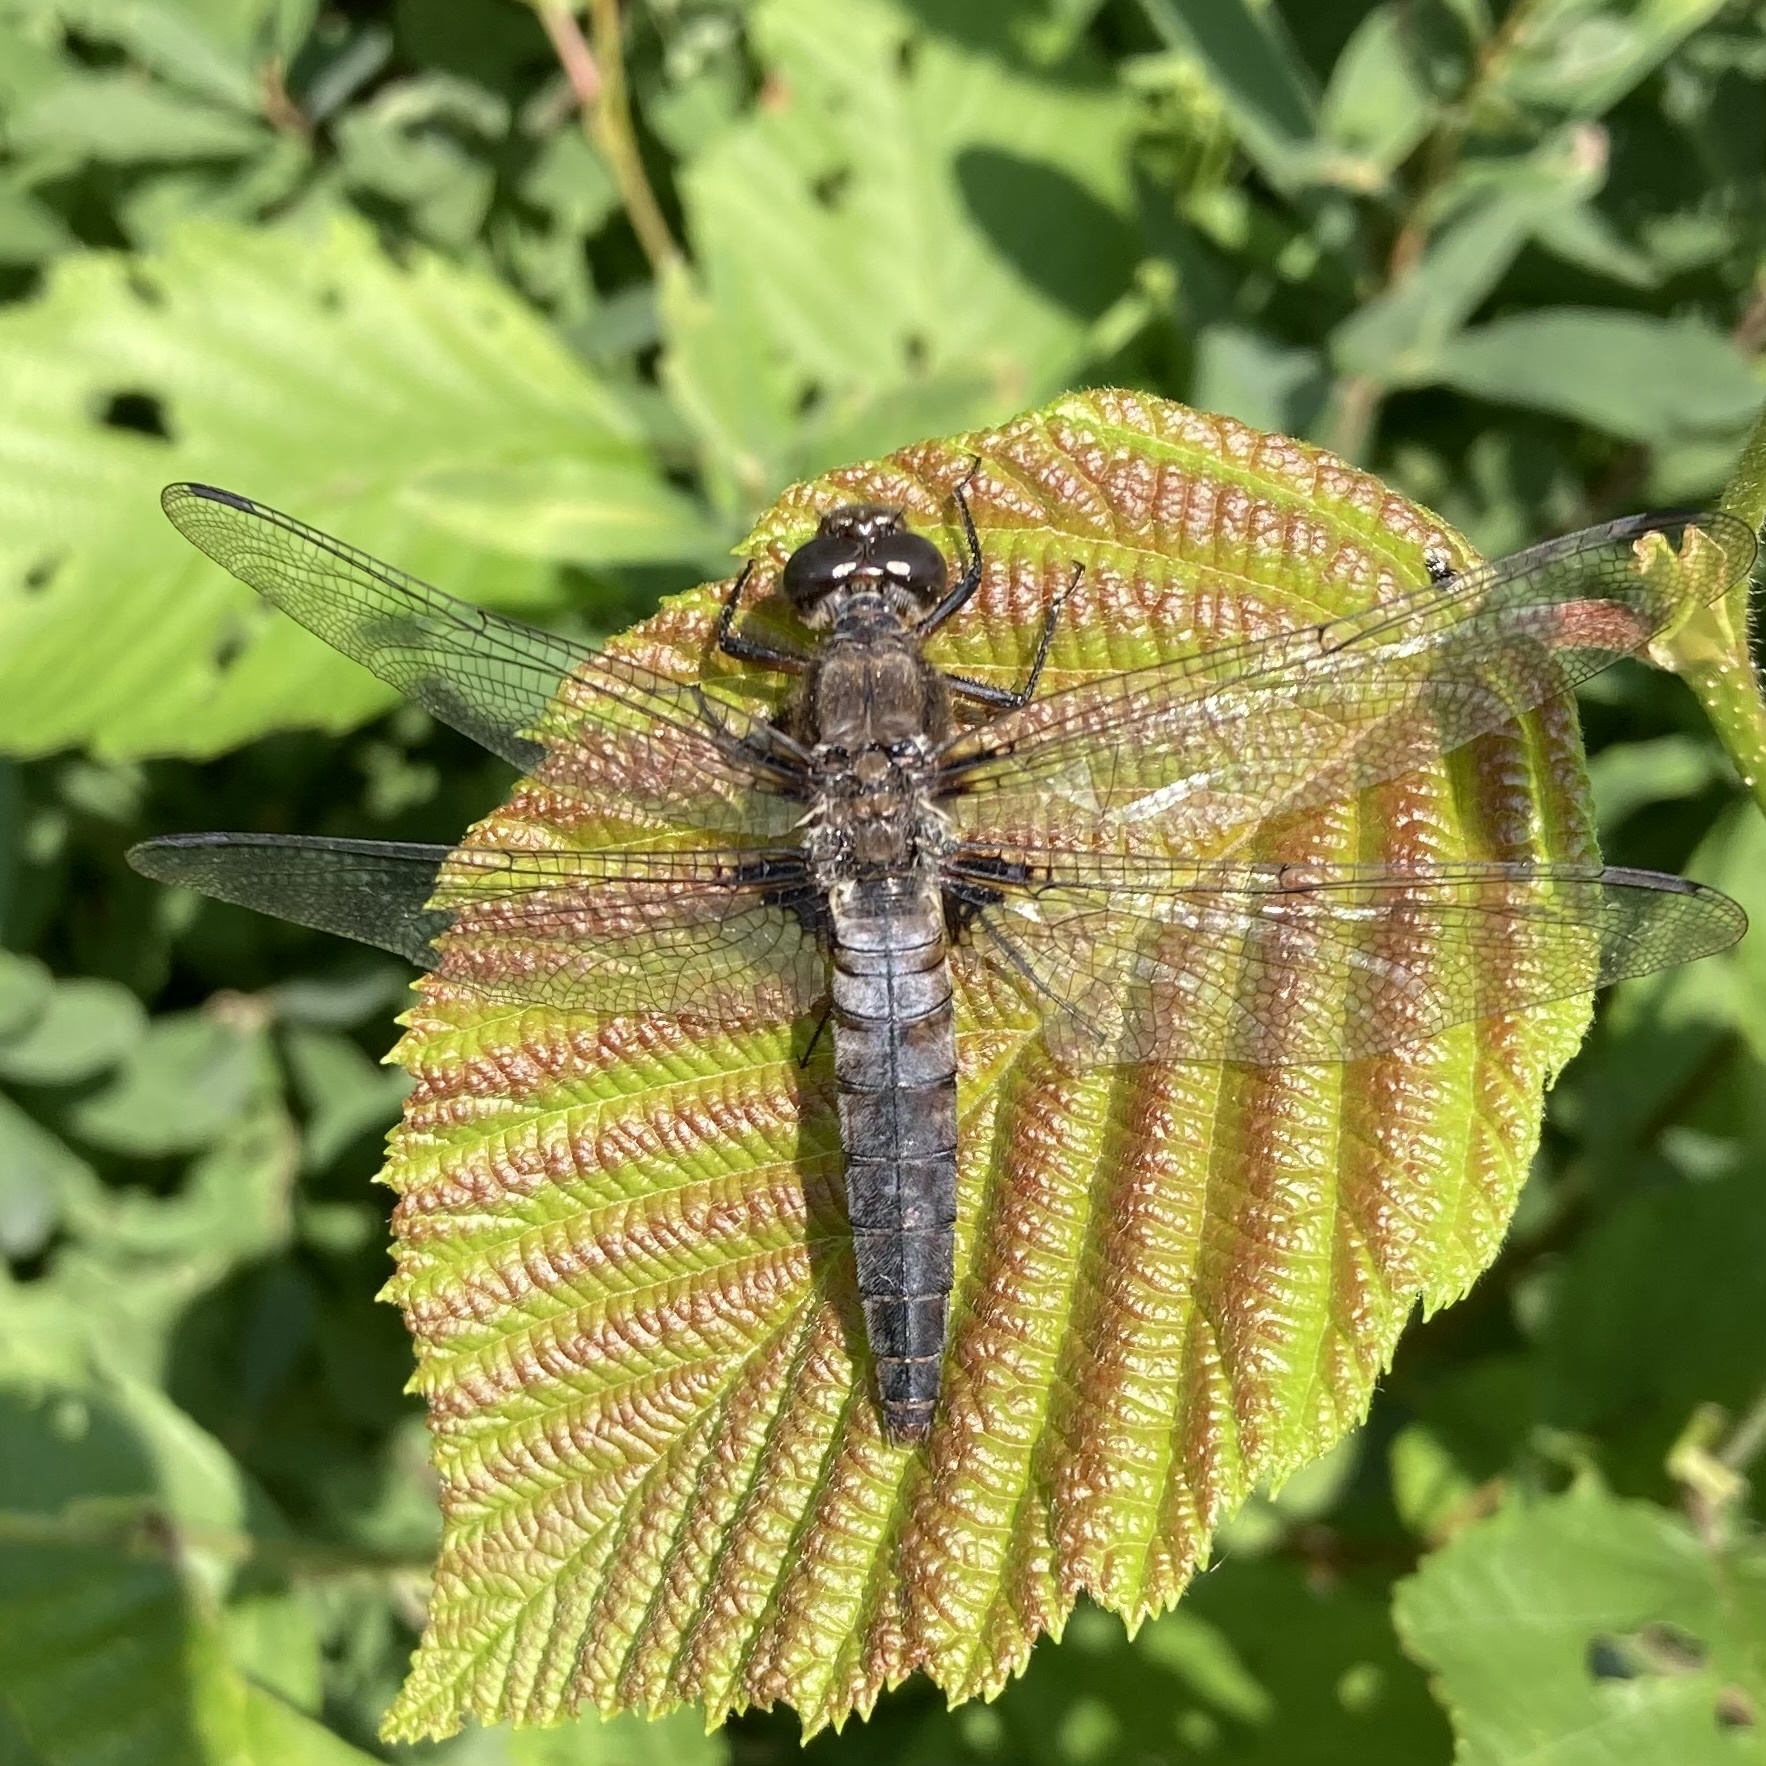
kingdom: Animalia
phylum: Arthropoda
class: Insecta
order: Odonata
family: Libellulidae
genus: Ladona
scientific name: Ladona julia
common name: Chalk-fronted corporal
